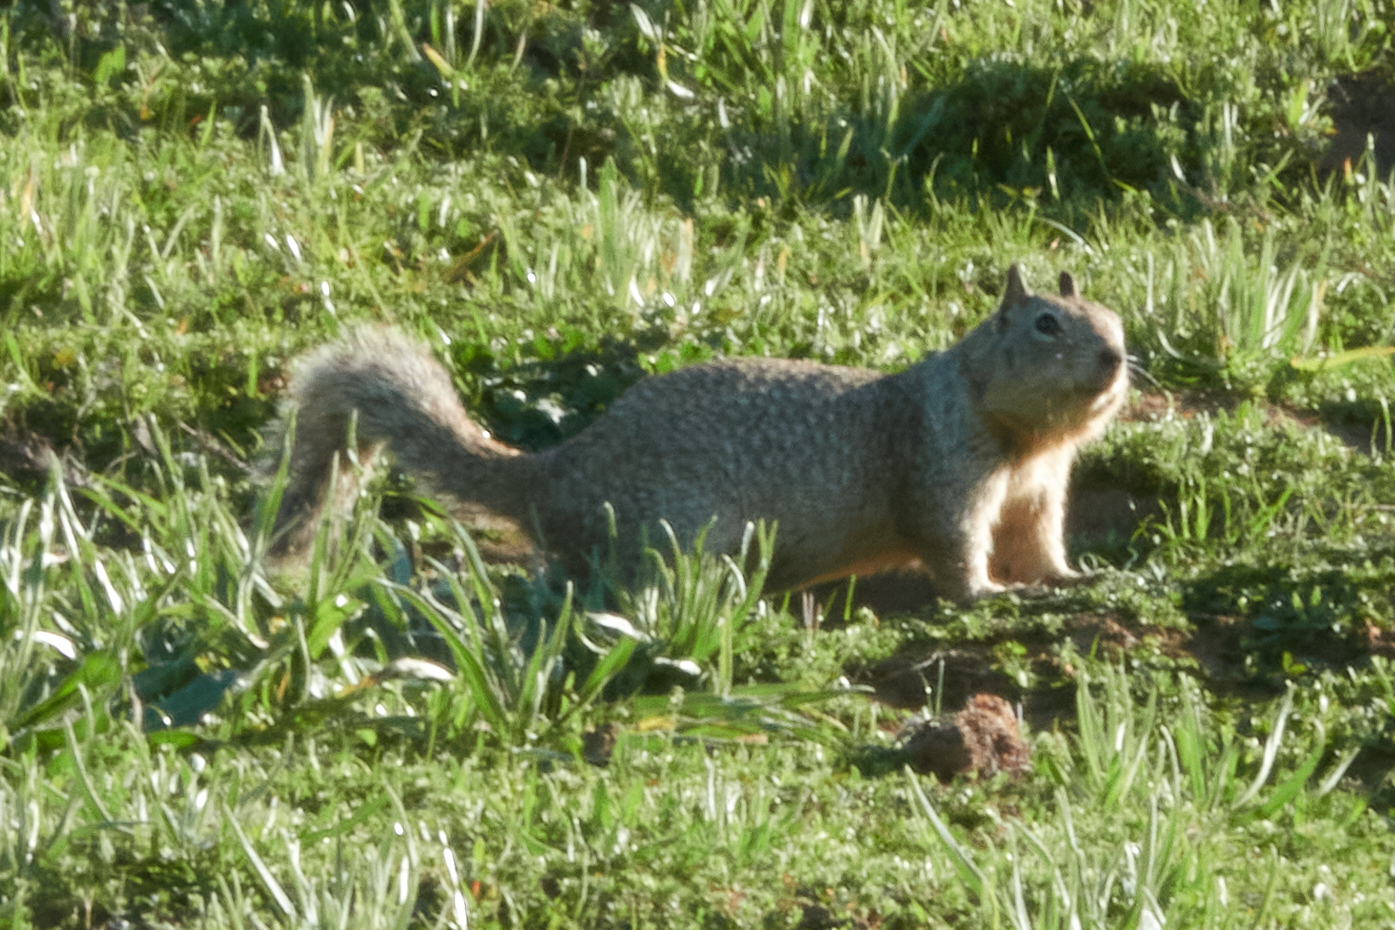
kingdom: Animalia
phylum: Chordata
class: Mammalia
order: Rodentia
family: Sciuridae
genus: Otospermophilus
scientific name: Otospermophilus beecheyi
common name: California ground squirrel
